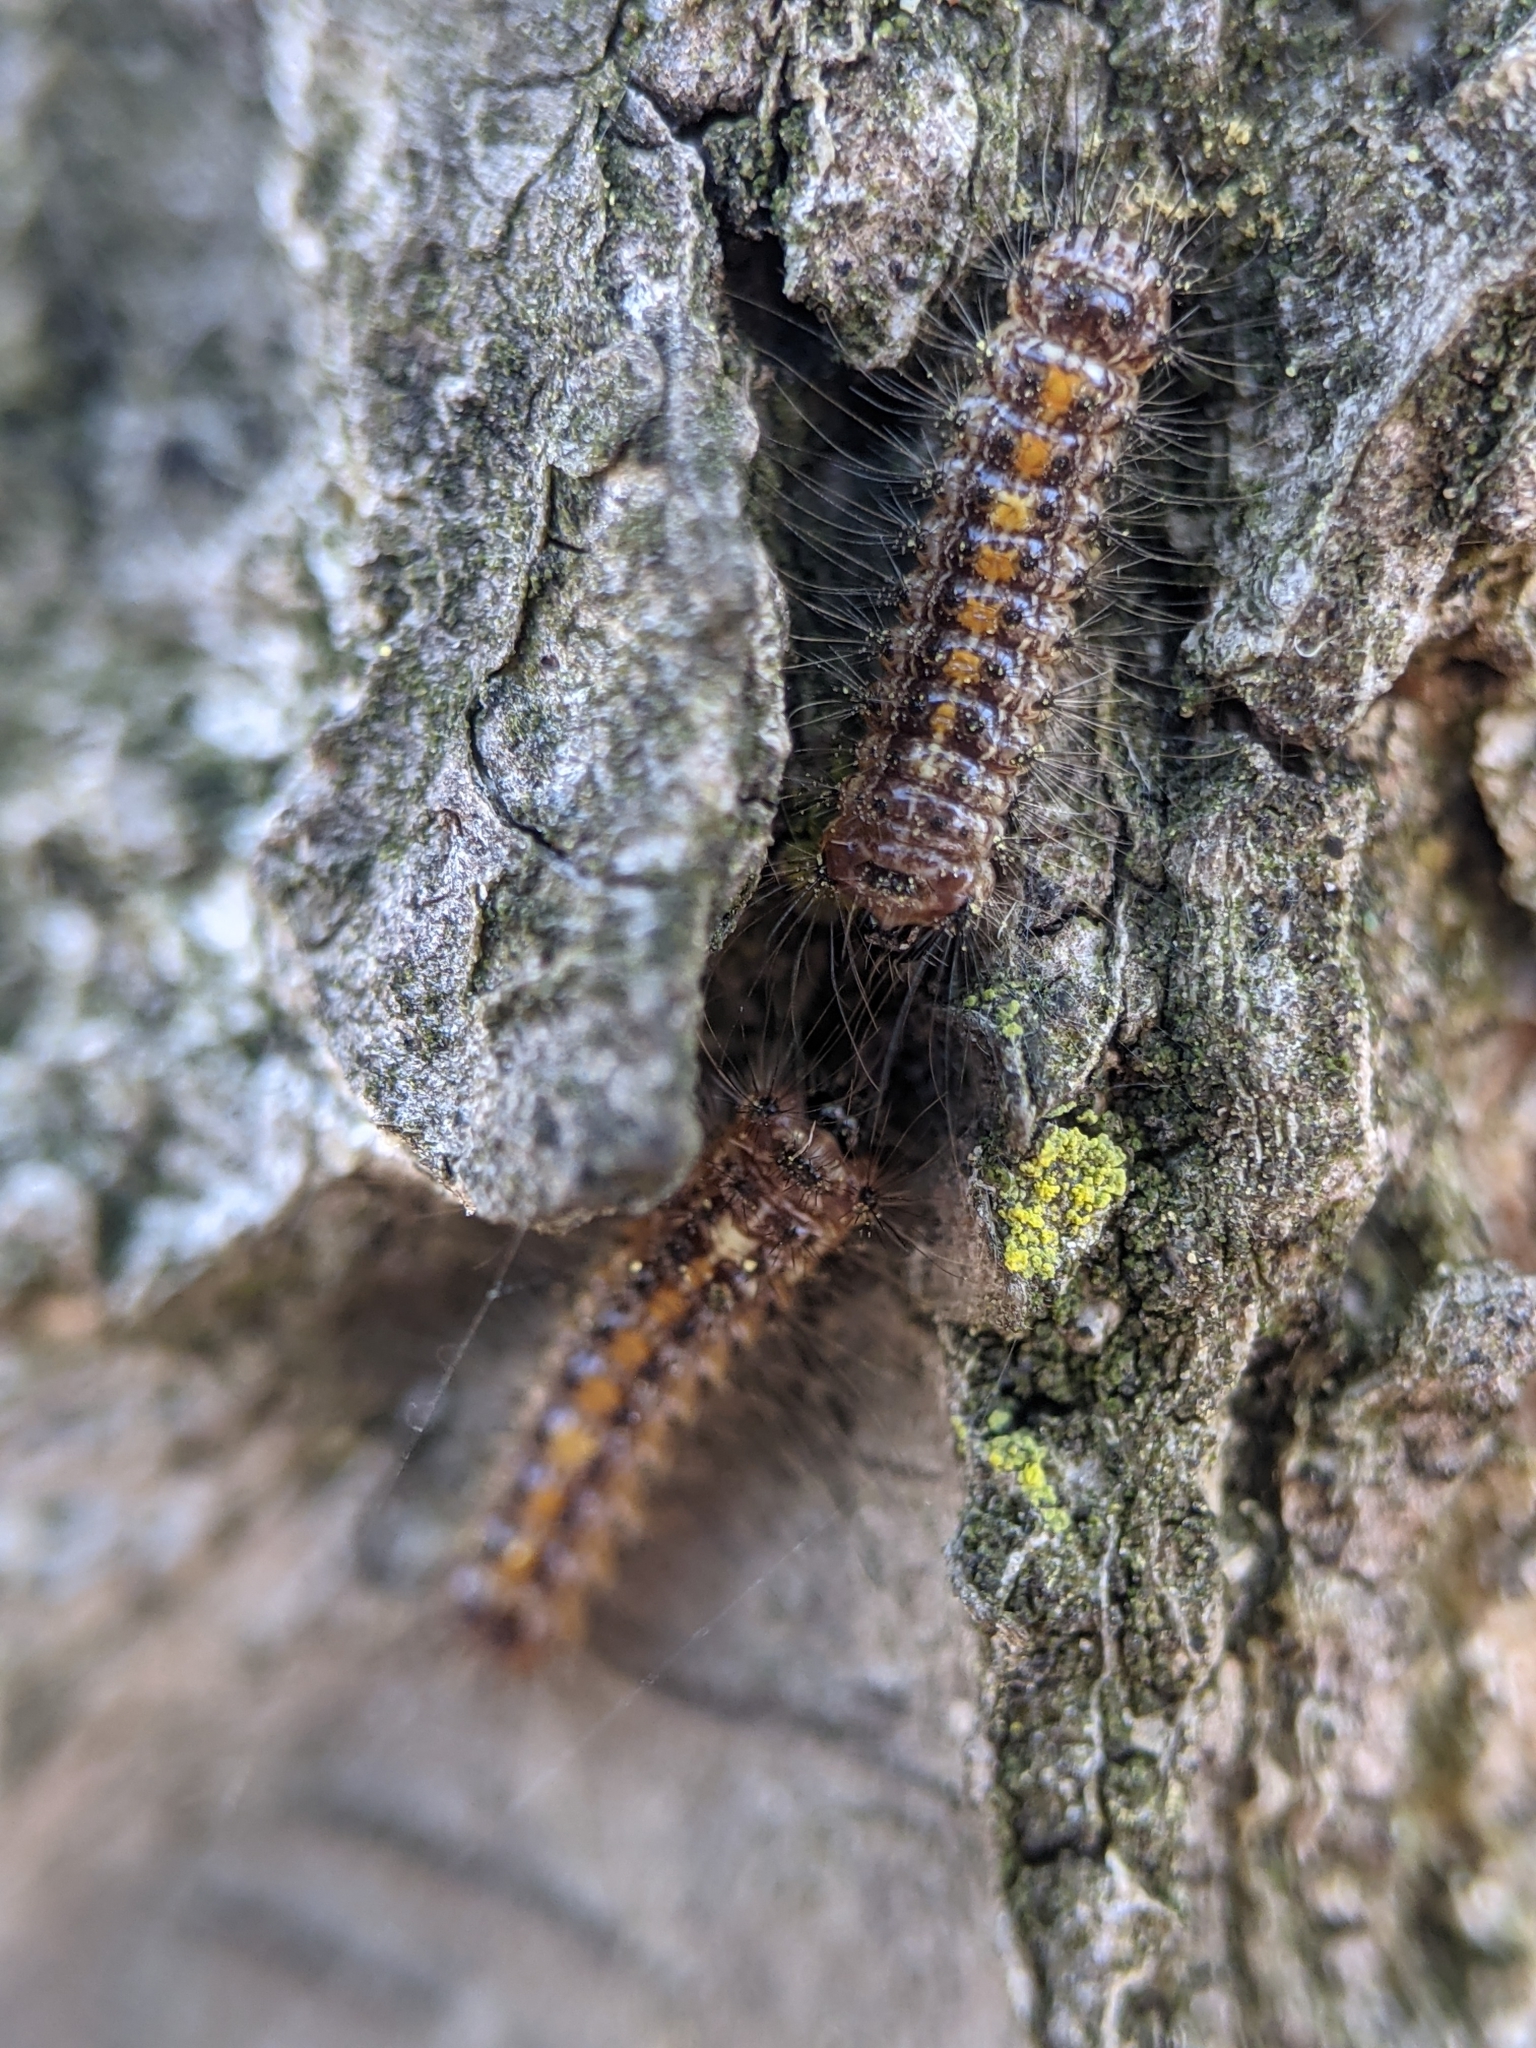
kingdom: Animalia
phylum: Arthropoda
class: Insecta
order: Lepidoptera
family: Erebidae
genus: Lymantria
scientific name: Lymantria dispar
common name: Gypsy moth
